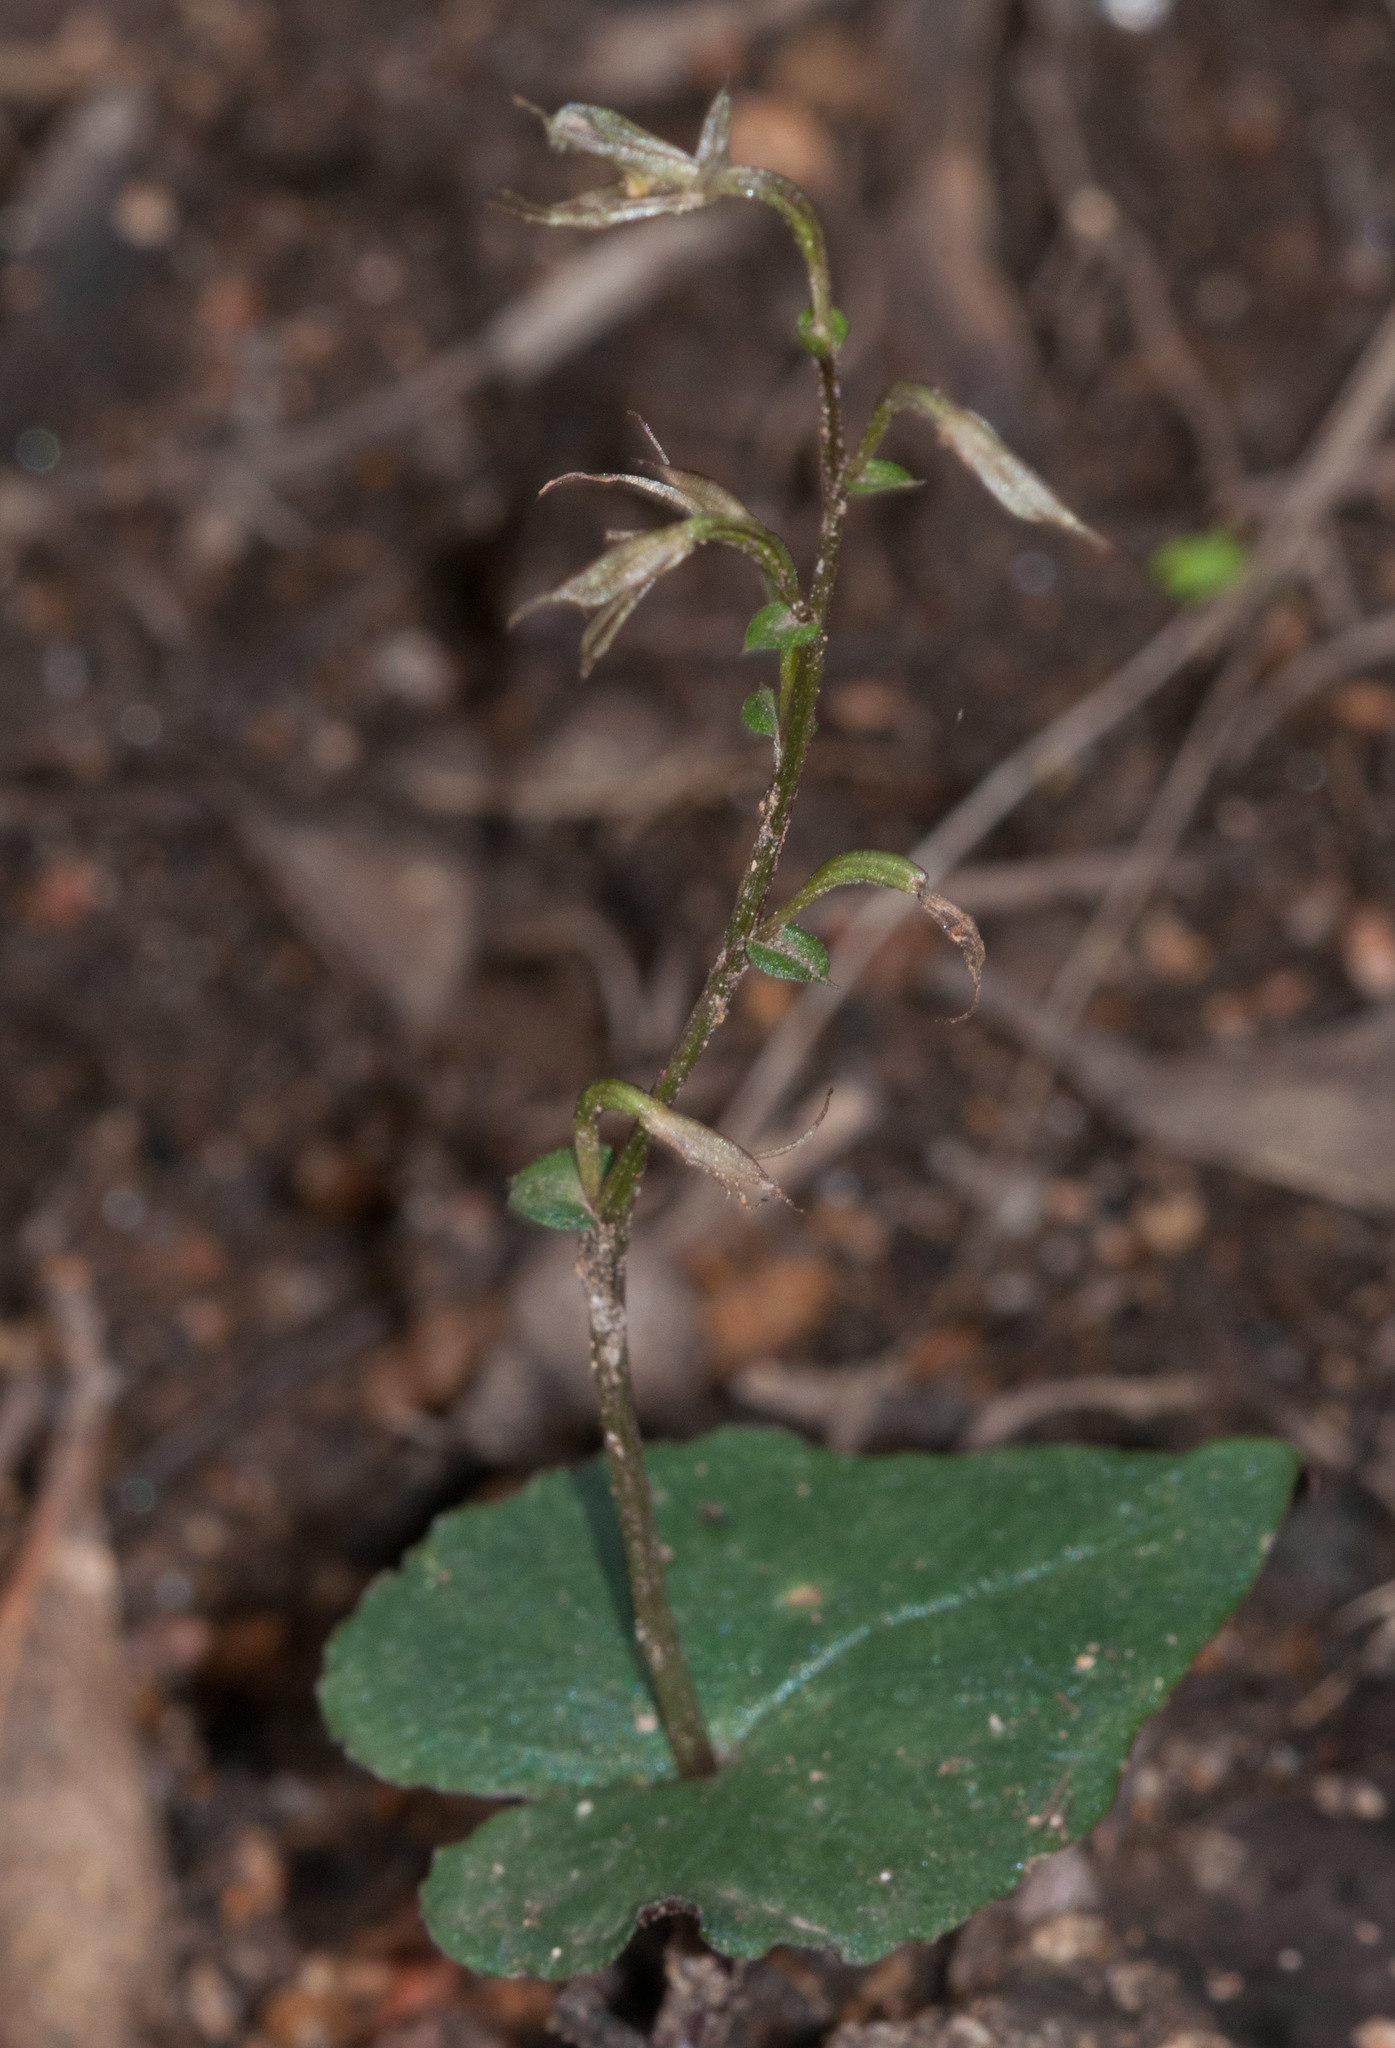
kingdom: Plantae
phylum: Tracheophyta
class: Liliopsida
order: Asparagales
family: Orchidaceae
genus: Acianthus
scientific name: Acianthus pusillus
